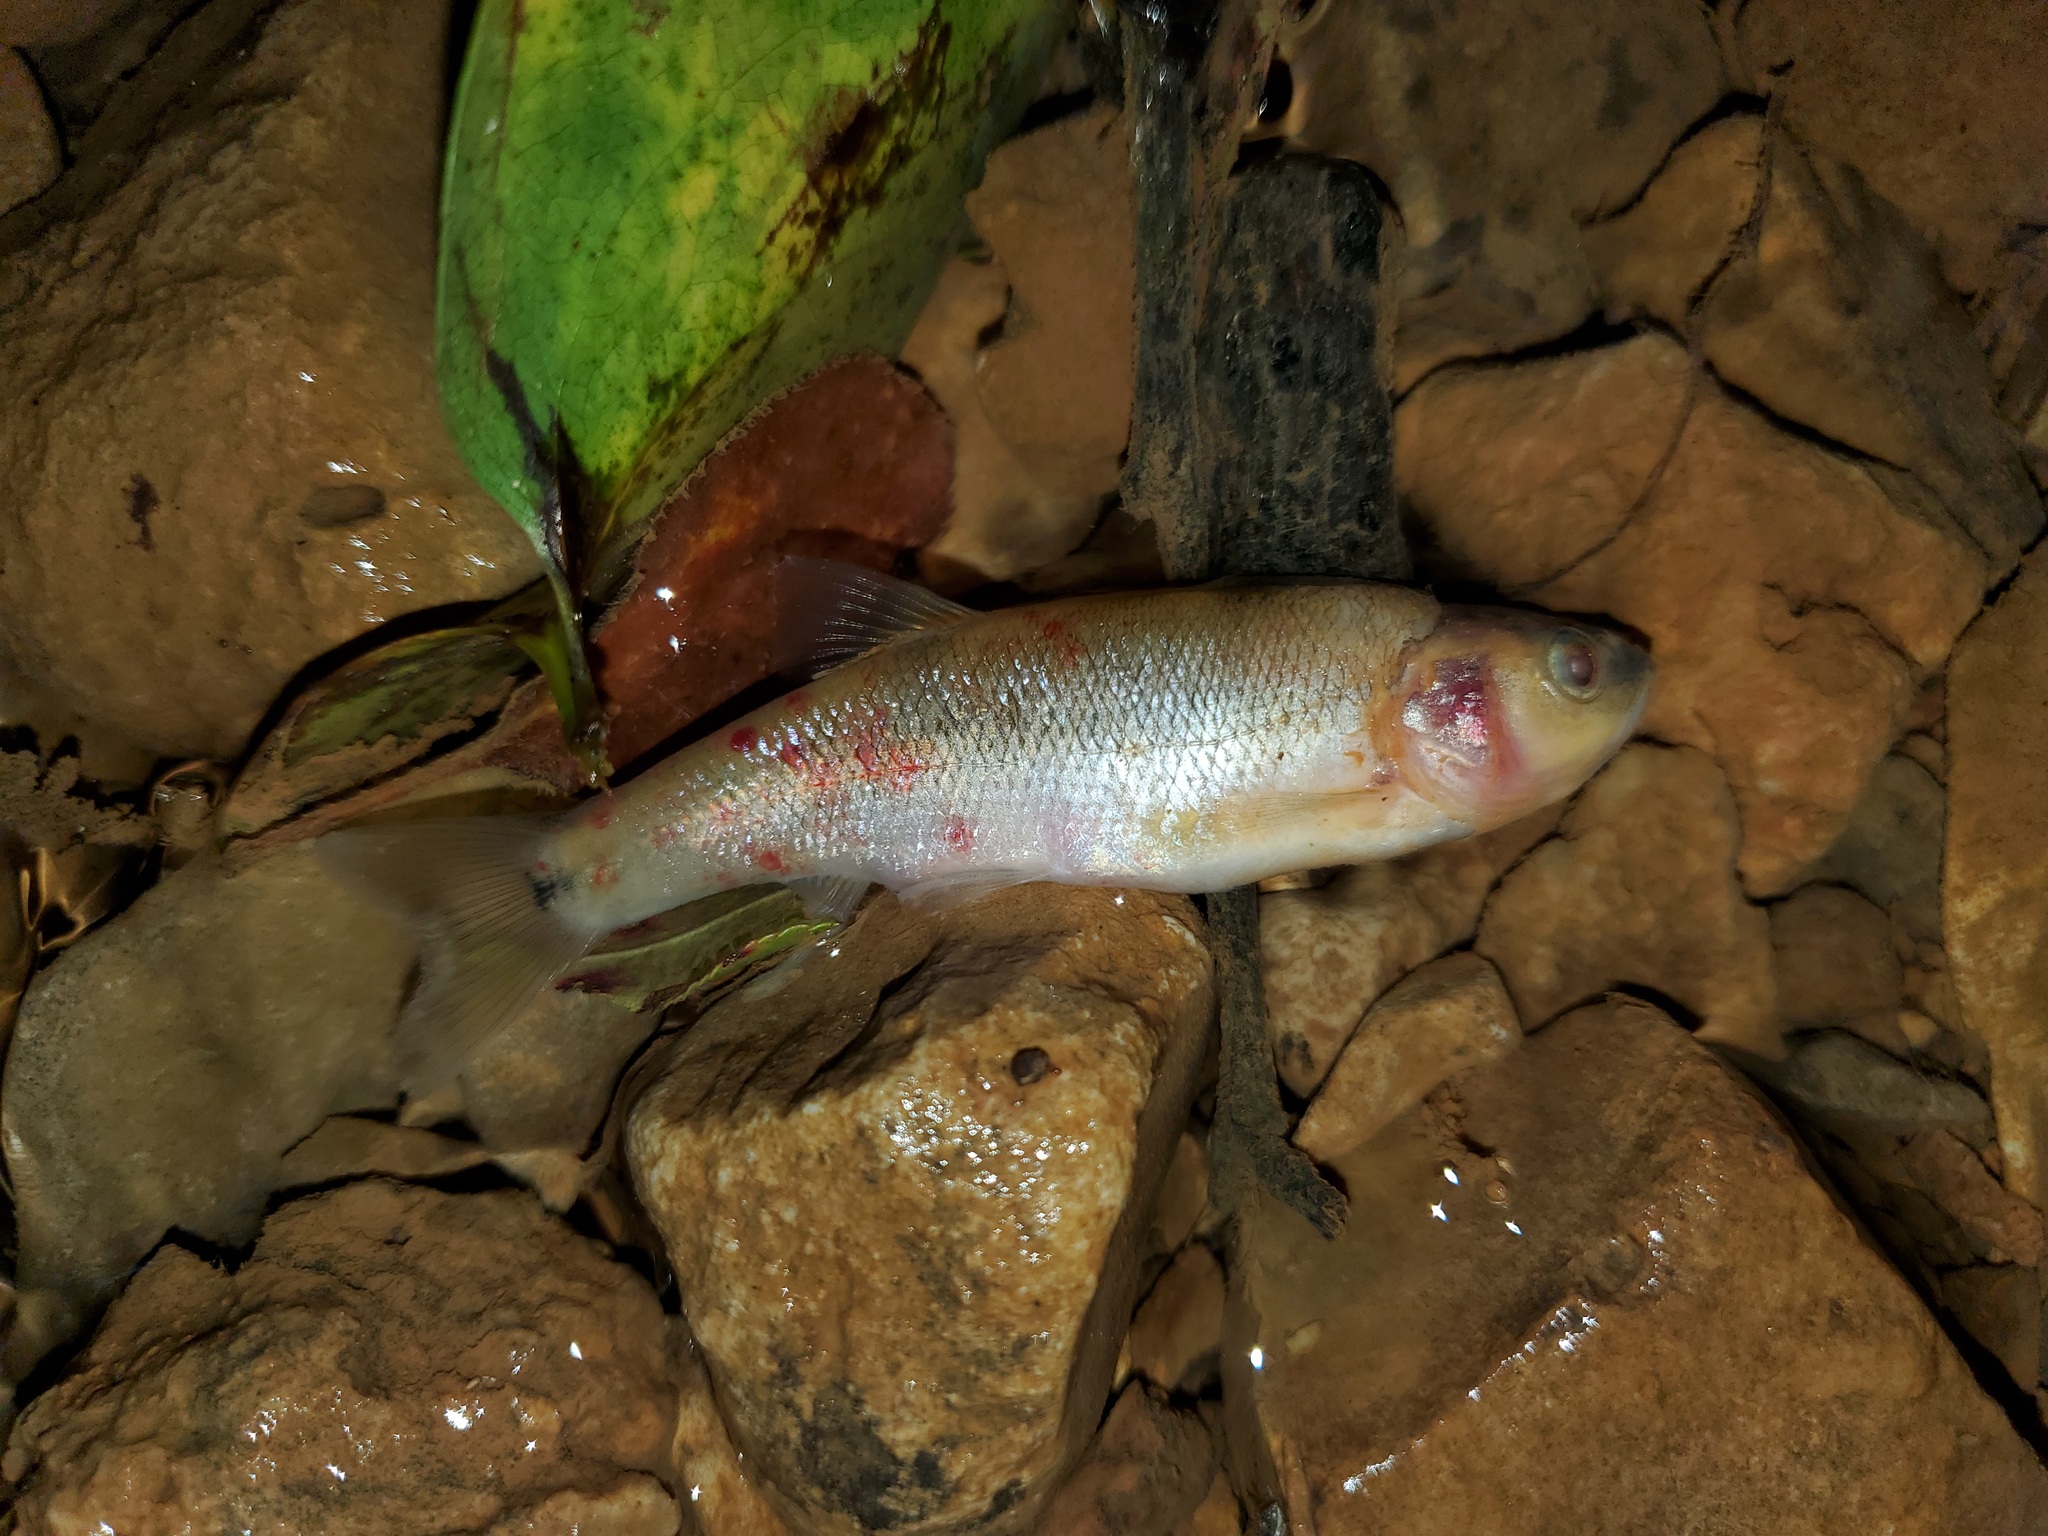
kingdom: Animalia
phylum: Chordata
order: Cypriniformes
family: Cyprinidae
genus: Semotilus
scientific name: Semotilus atromaculatus
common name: Creek chub
